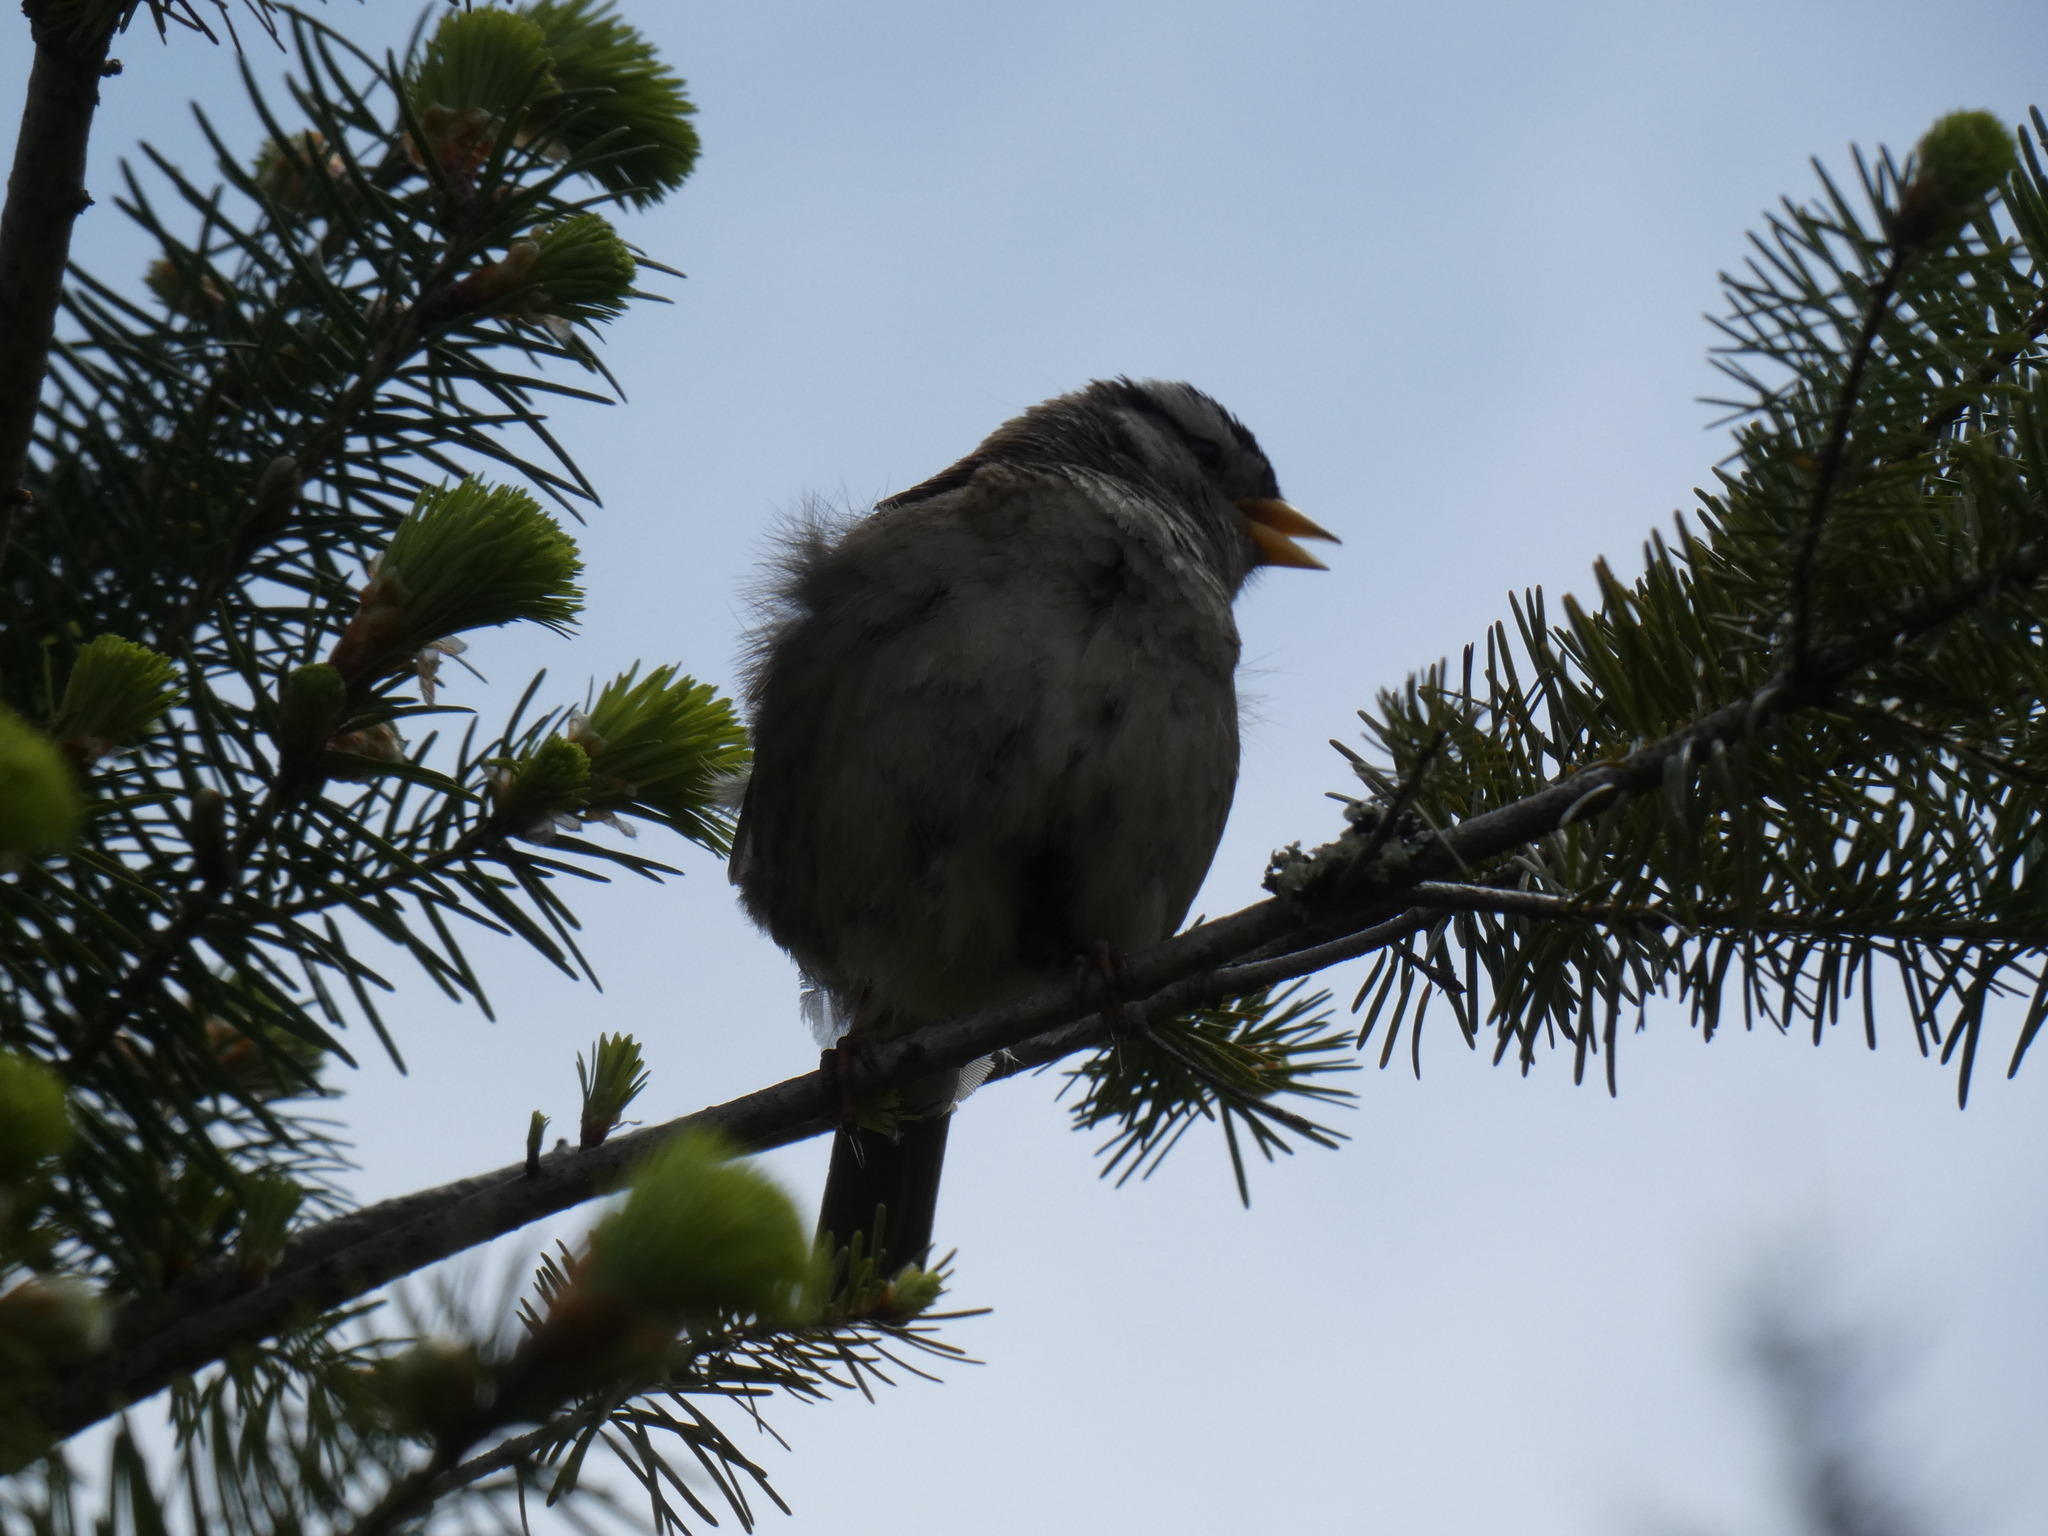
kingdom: Animalia
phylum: Chordata
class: Aves
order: Passeriformes
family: Passerellidae
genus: Zonotrichia
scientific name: Zonotrichia leucophrys
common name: White-crowned sparrow
